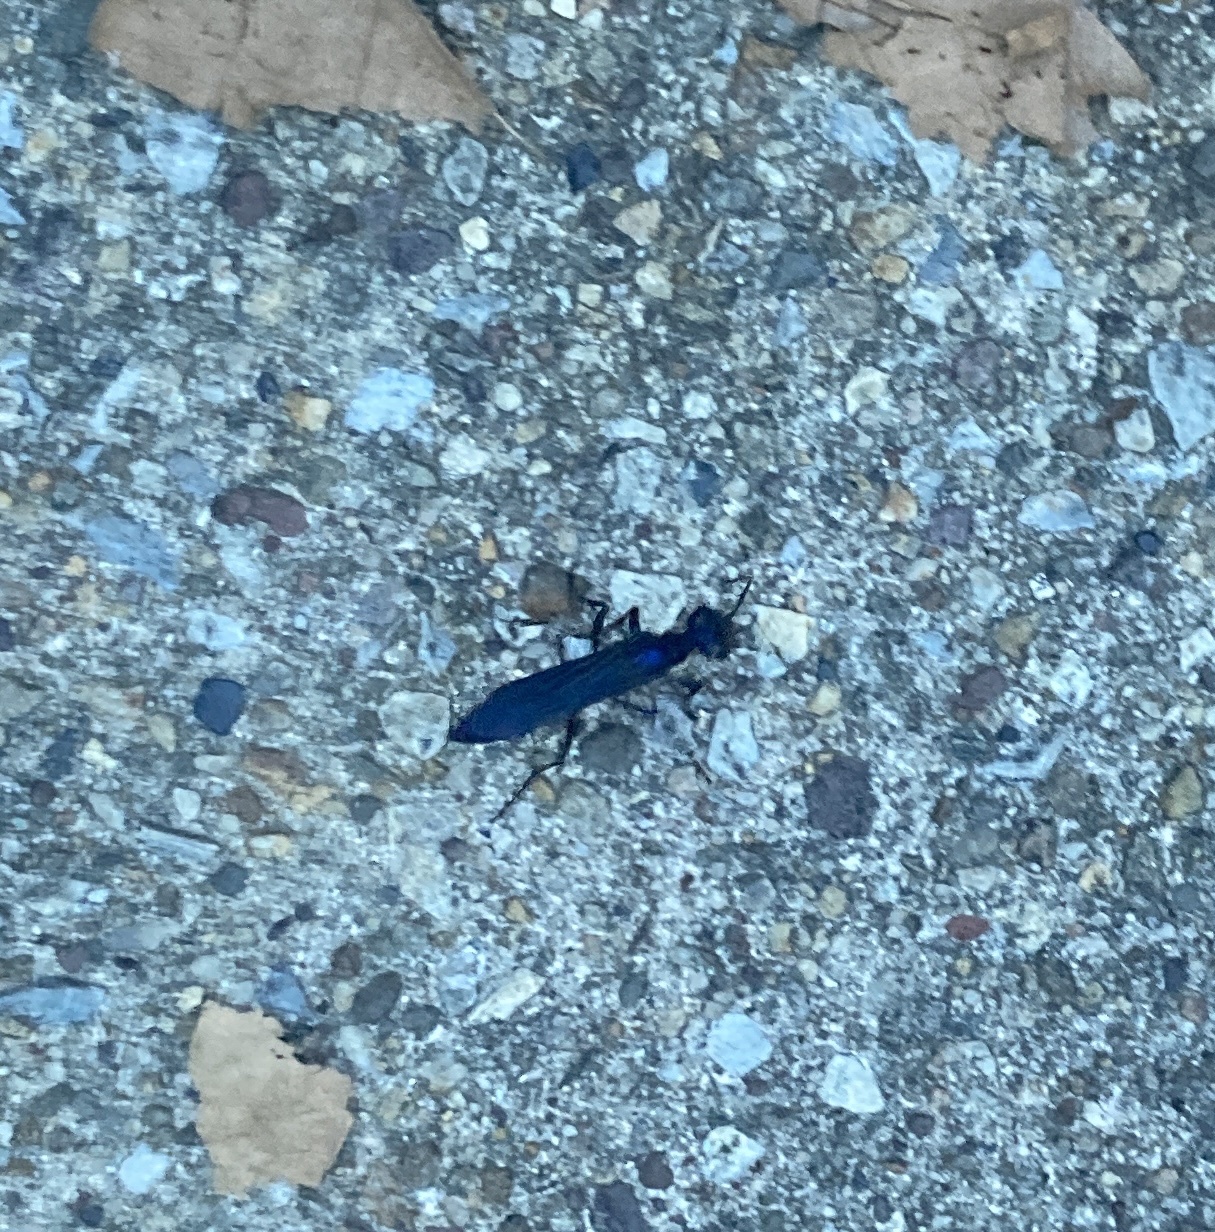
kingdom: Animalia
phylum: Arthropoda
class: Insecta
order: Hymenoptera
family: Sphecidae
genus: Chlorion
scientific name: Chlorion aerarium
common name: Steel-blue cricket hunter
